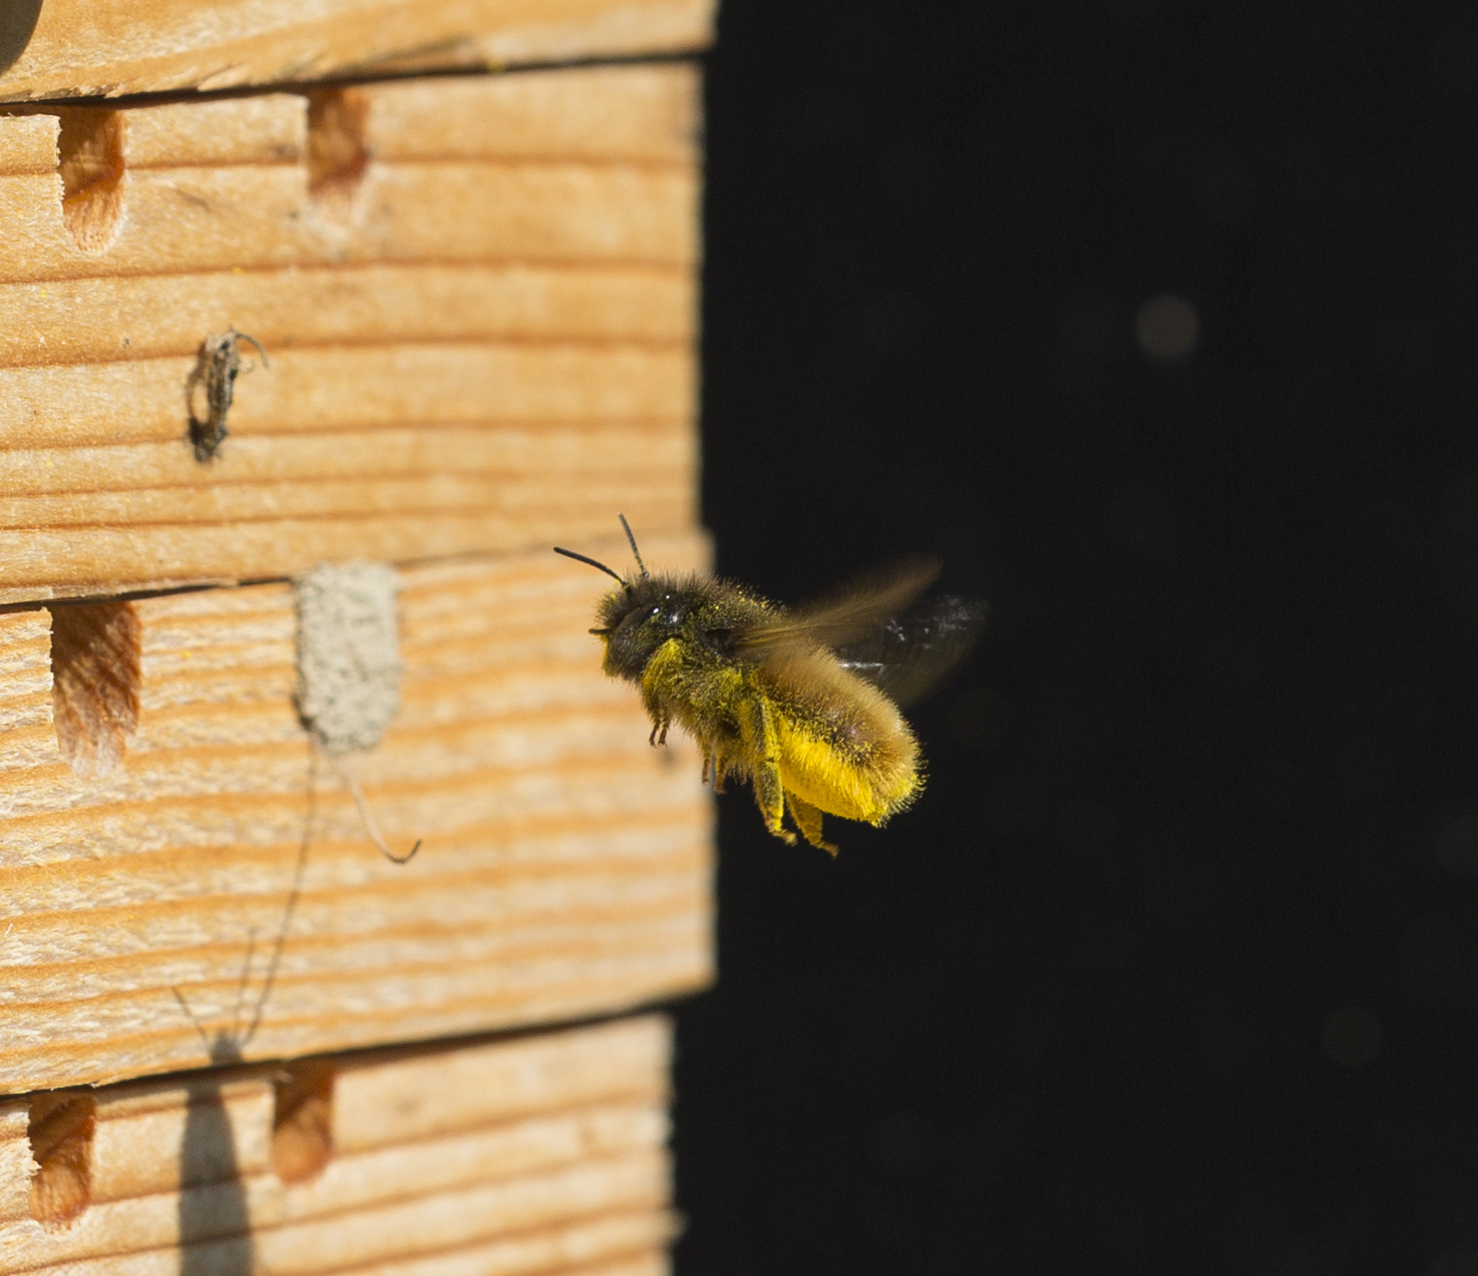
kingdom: Animalia
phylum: Arthropoda
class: Insecta
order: Hymenoptera
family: Megachilidae
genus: Osmia
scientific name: Osmia cornuta
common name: Mason bee
